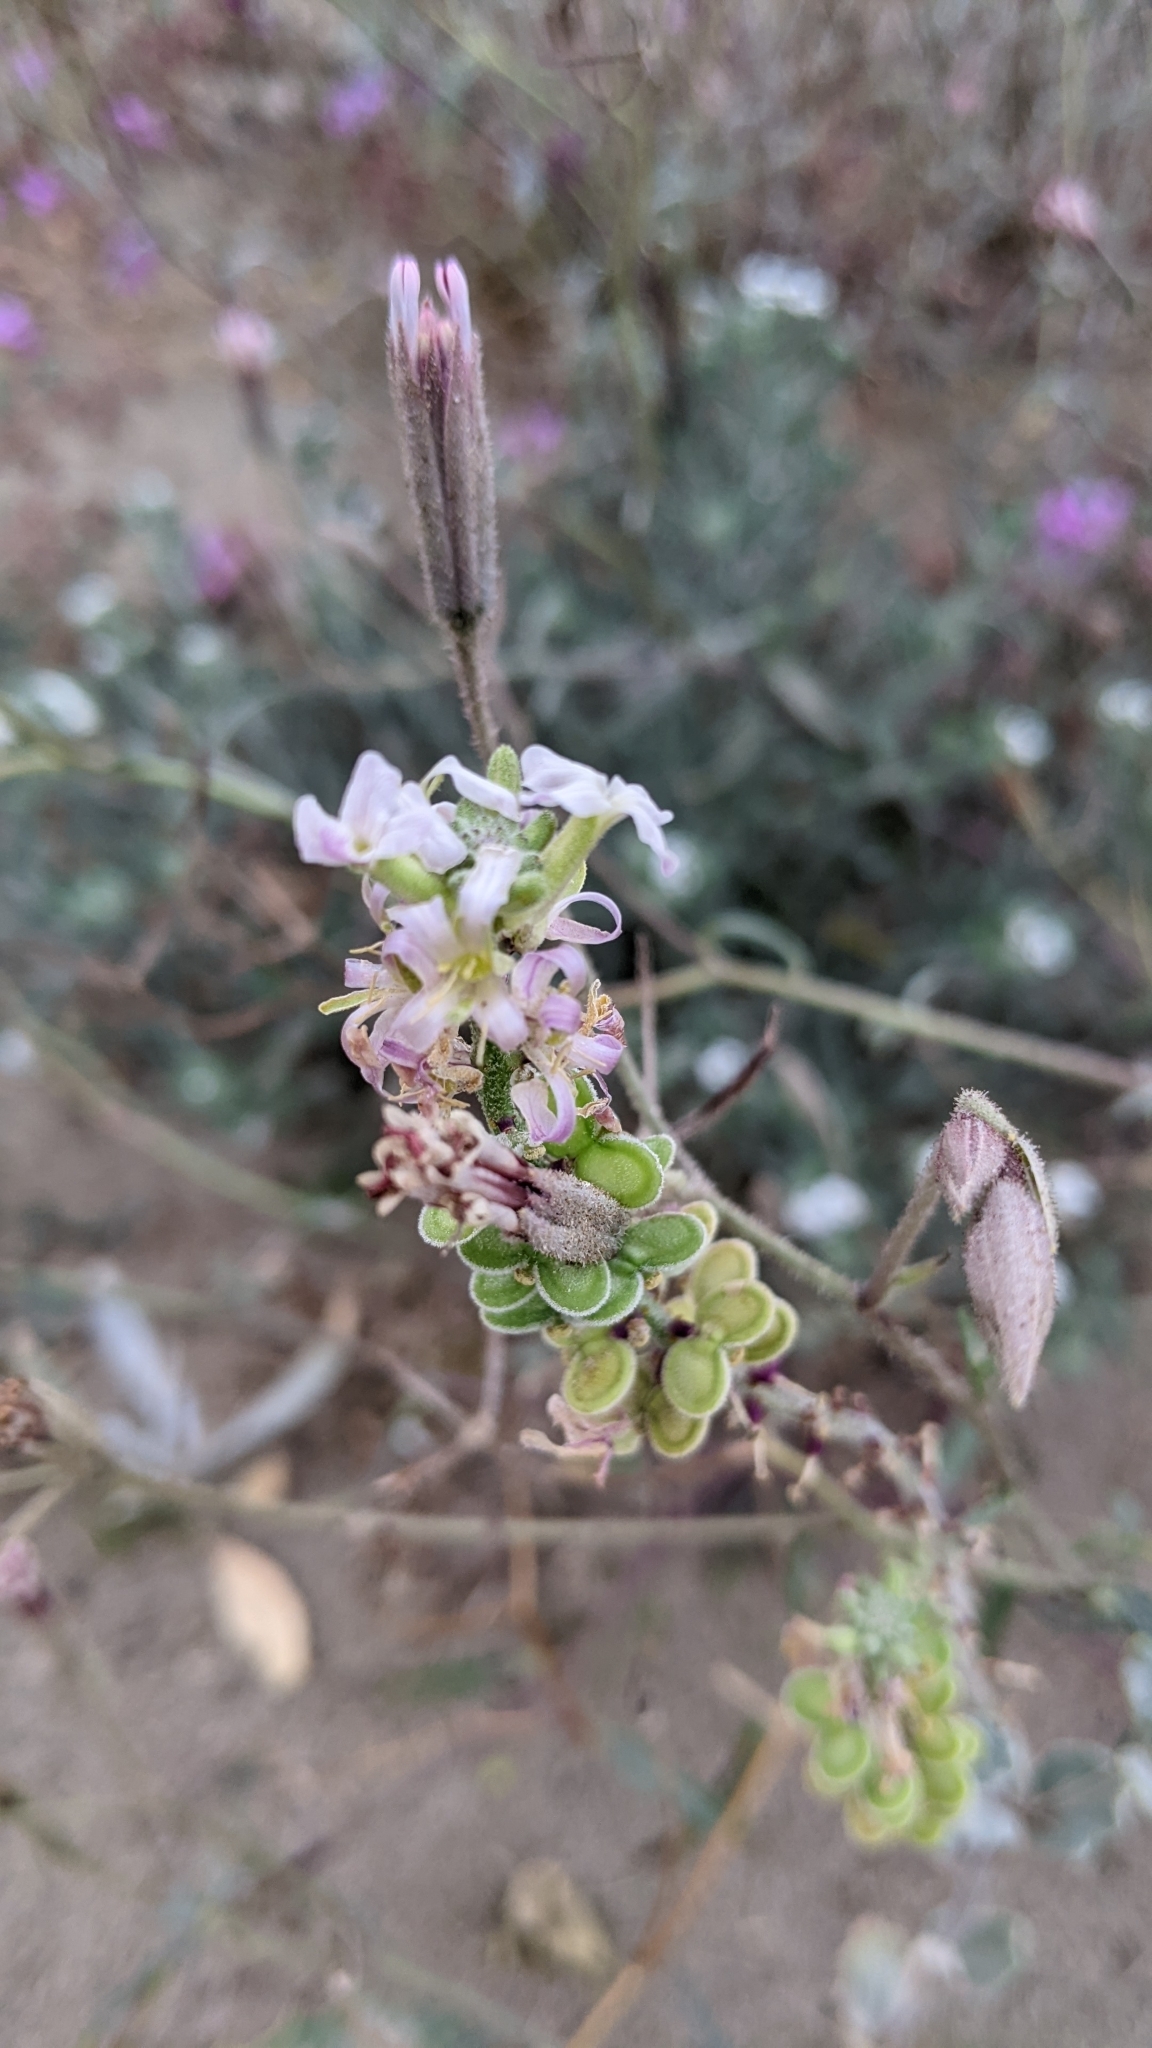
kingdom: Plantae
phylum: Tracheophyta
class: Magnoliopsida
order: Brassicales
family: Brassicaceae
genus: Dithyrea
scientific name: Dithyrea californica
